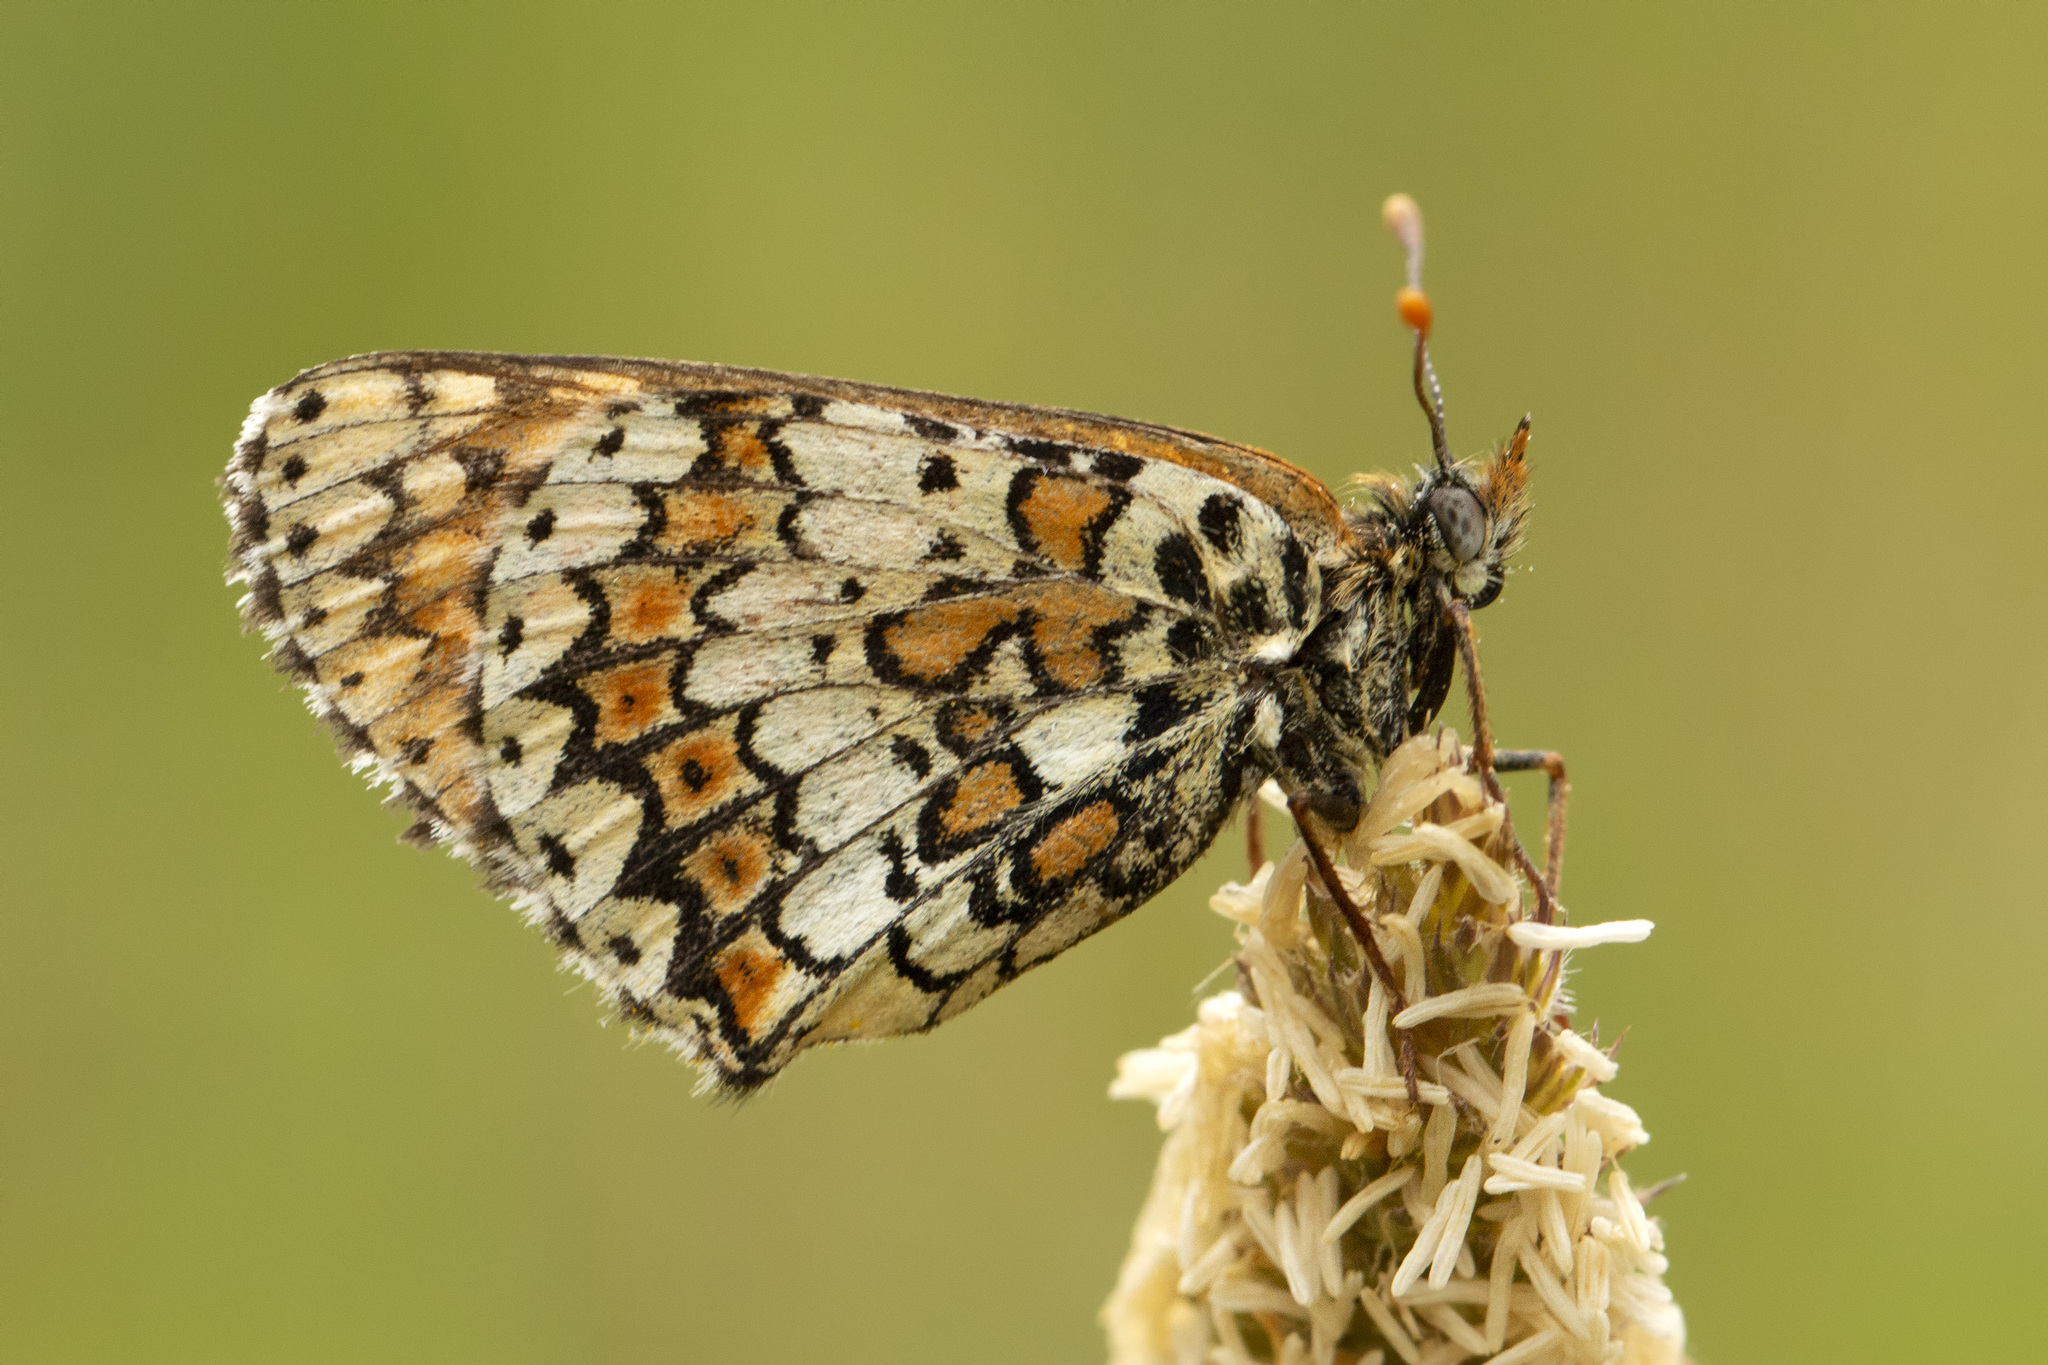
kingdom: Animalia
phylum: Arthropoda
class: Insecta
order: Lepidoptera
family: Nymphalidae
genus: Melitaea
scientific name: Melitaea cinxia
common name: Glanville fritillary
